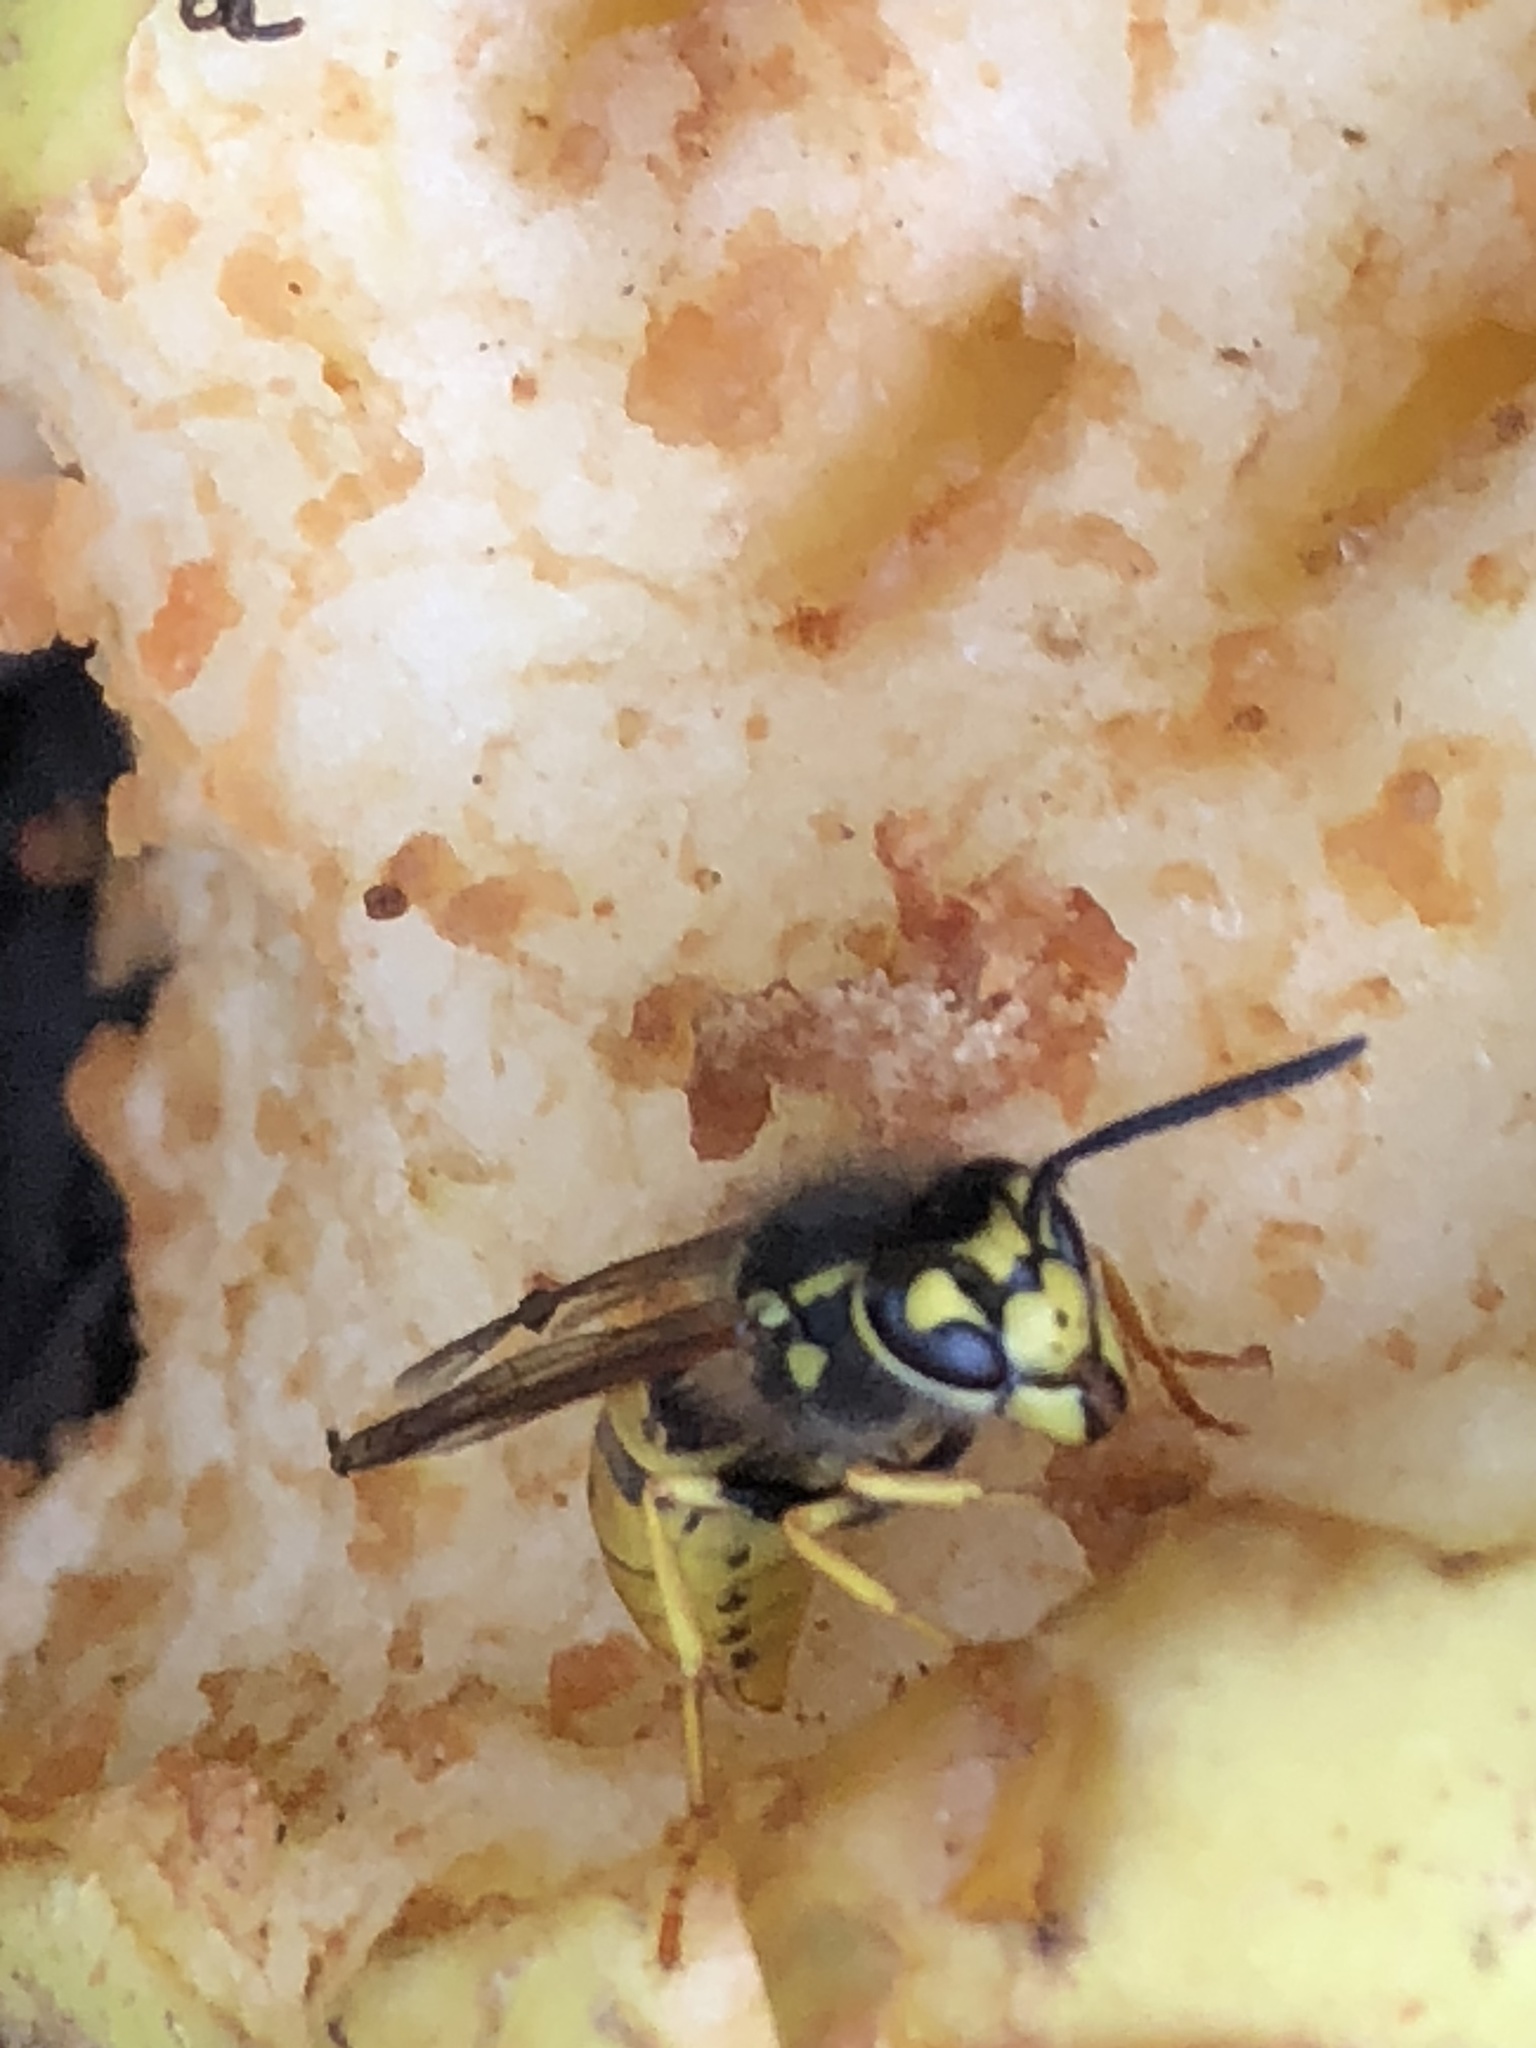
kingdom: Animalia
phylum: Arthropoda
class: Insecta
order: Hymenoptera
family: Vespidae
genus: Vespula
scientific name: Vespula germanica
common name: German wasp
